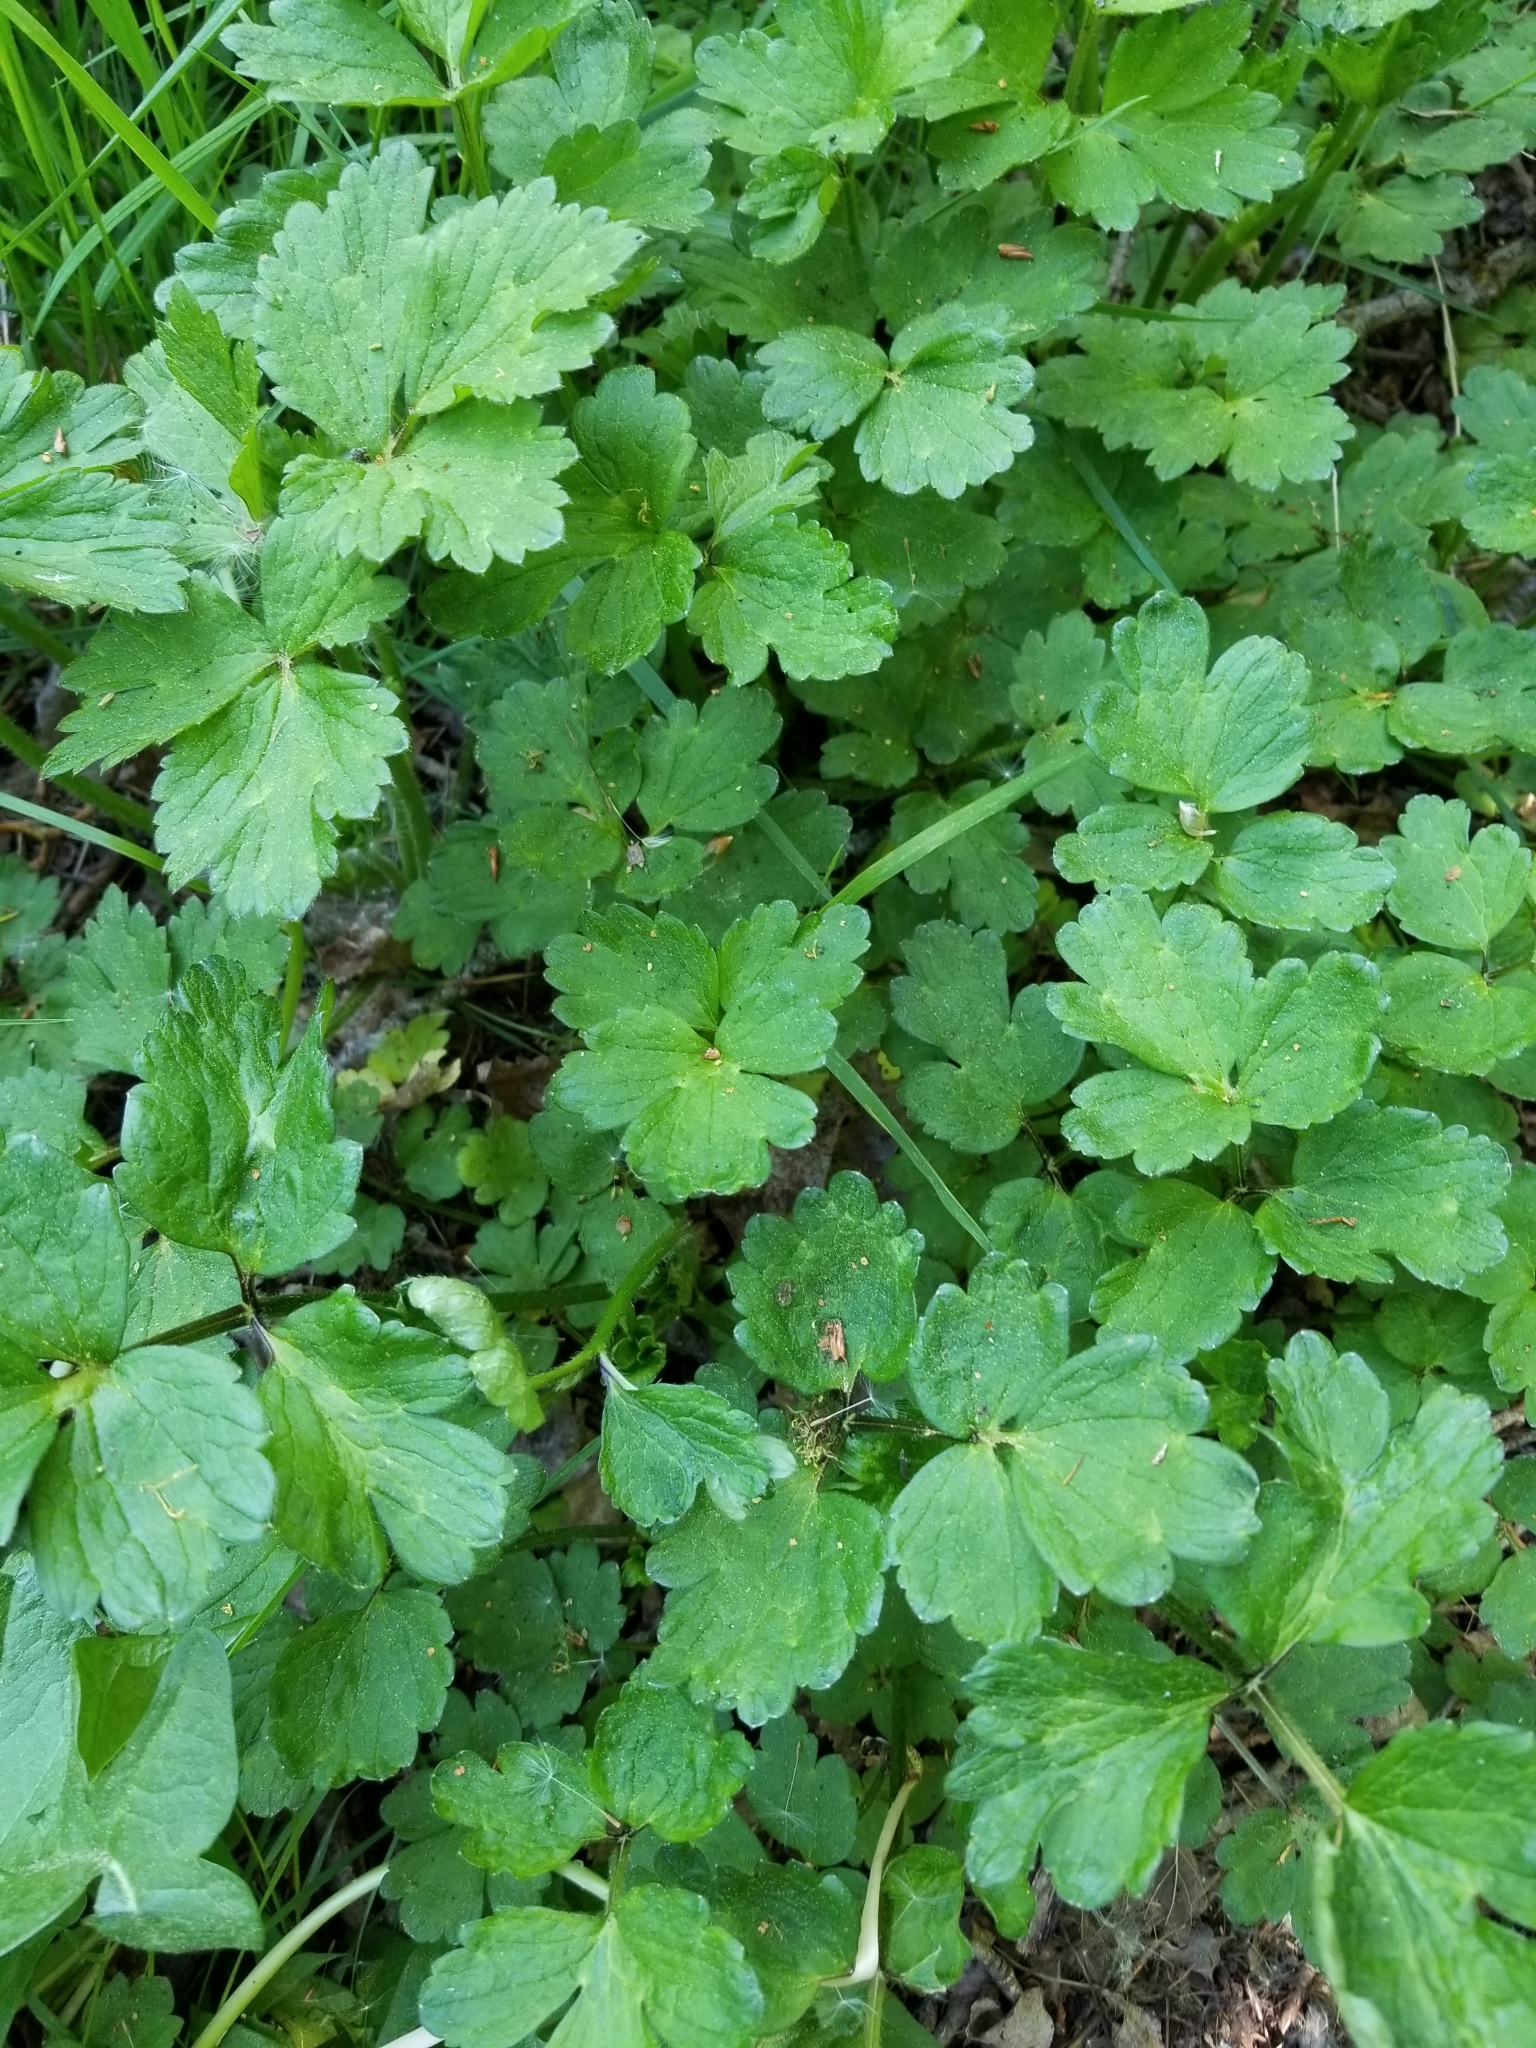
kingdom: Plantae
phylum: Tracheophyta
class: Magnoliopsida
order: Ranunculales
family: Ranunculaceae
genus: Ranunculus
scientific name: Ranunculus repens
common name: Creeping buttercup
